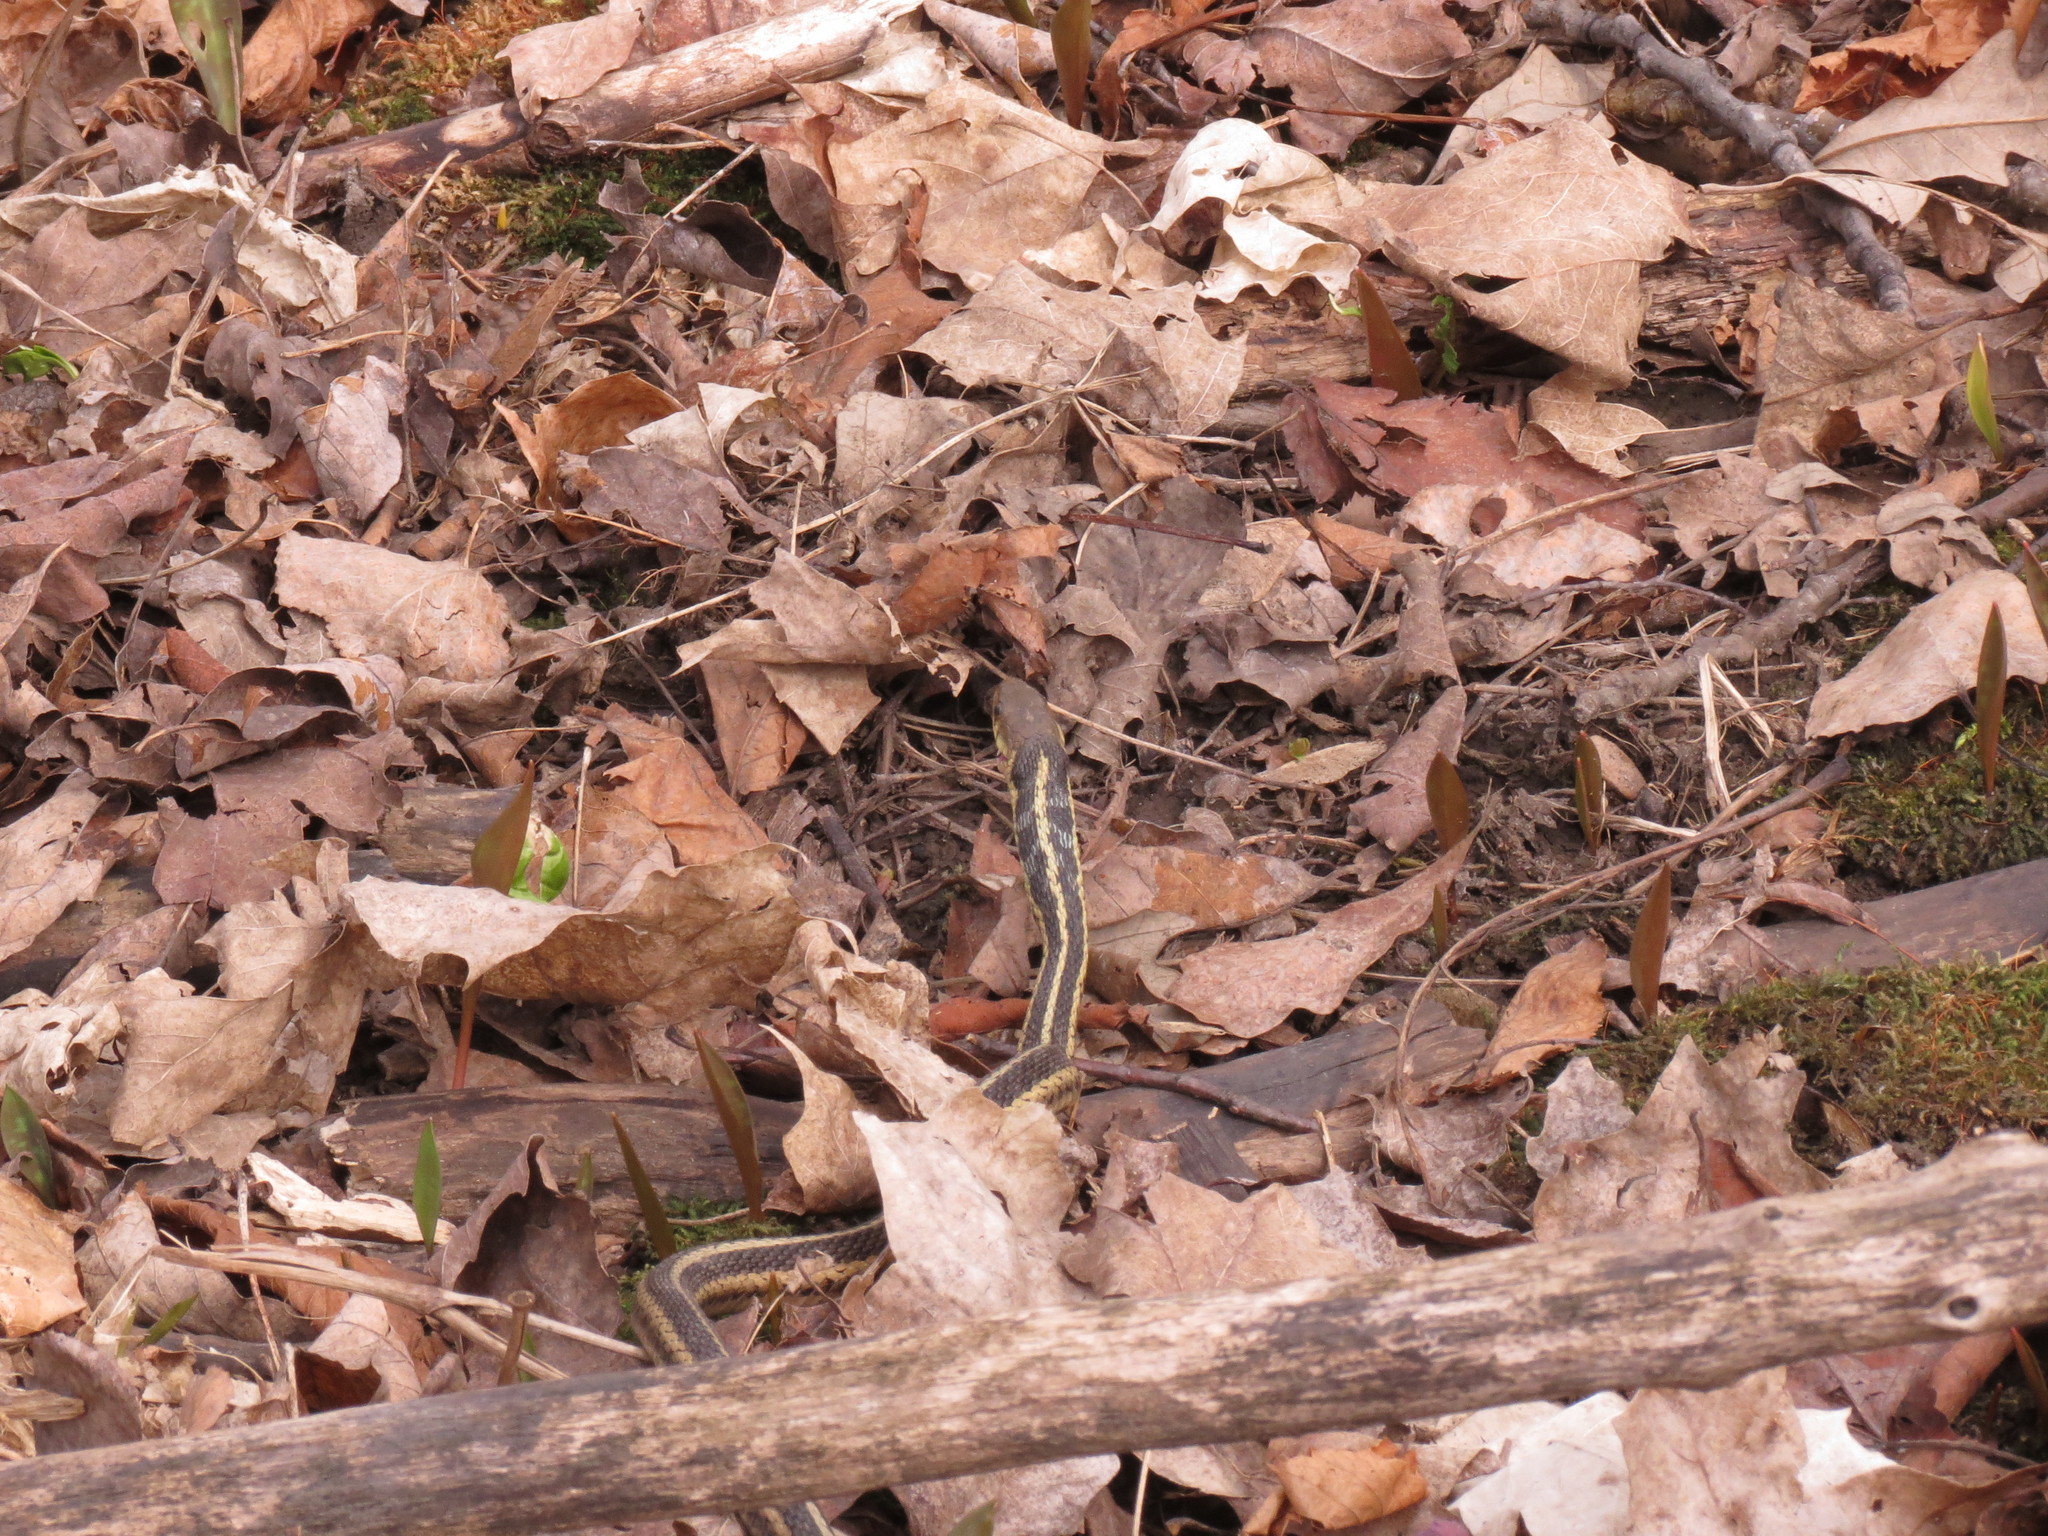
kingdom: Animalia
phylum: Chordata
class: Squamata
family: Colubridae
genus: Thamnophis
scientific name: Thamnophis sirtalis
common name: Common garter snake
